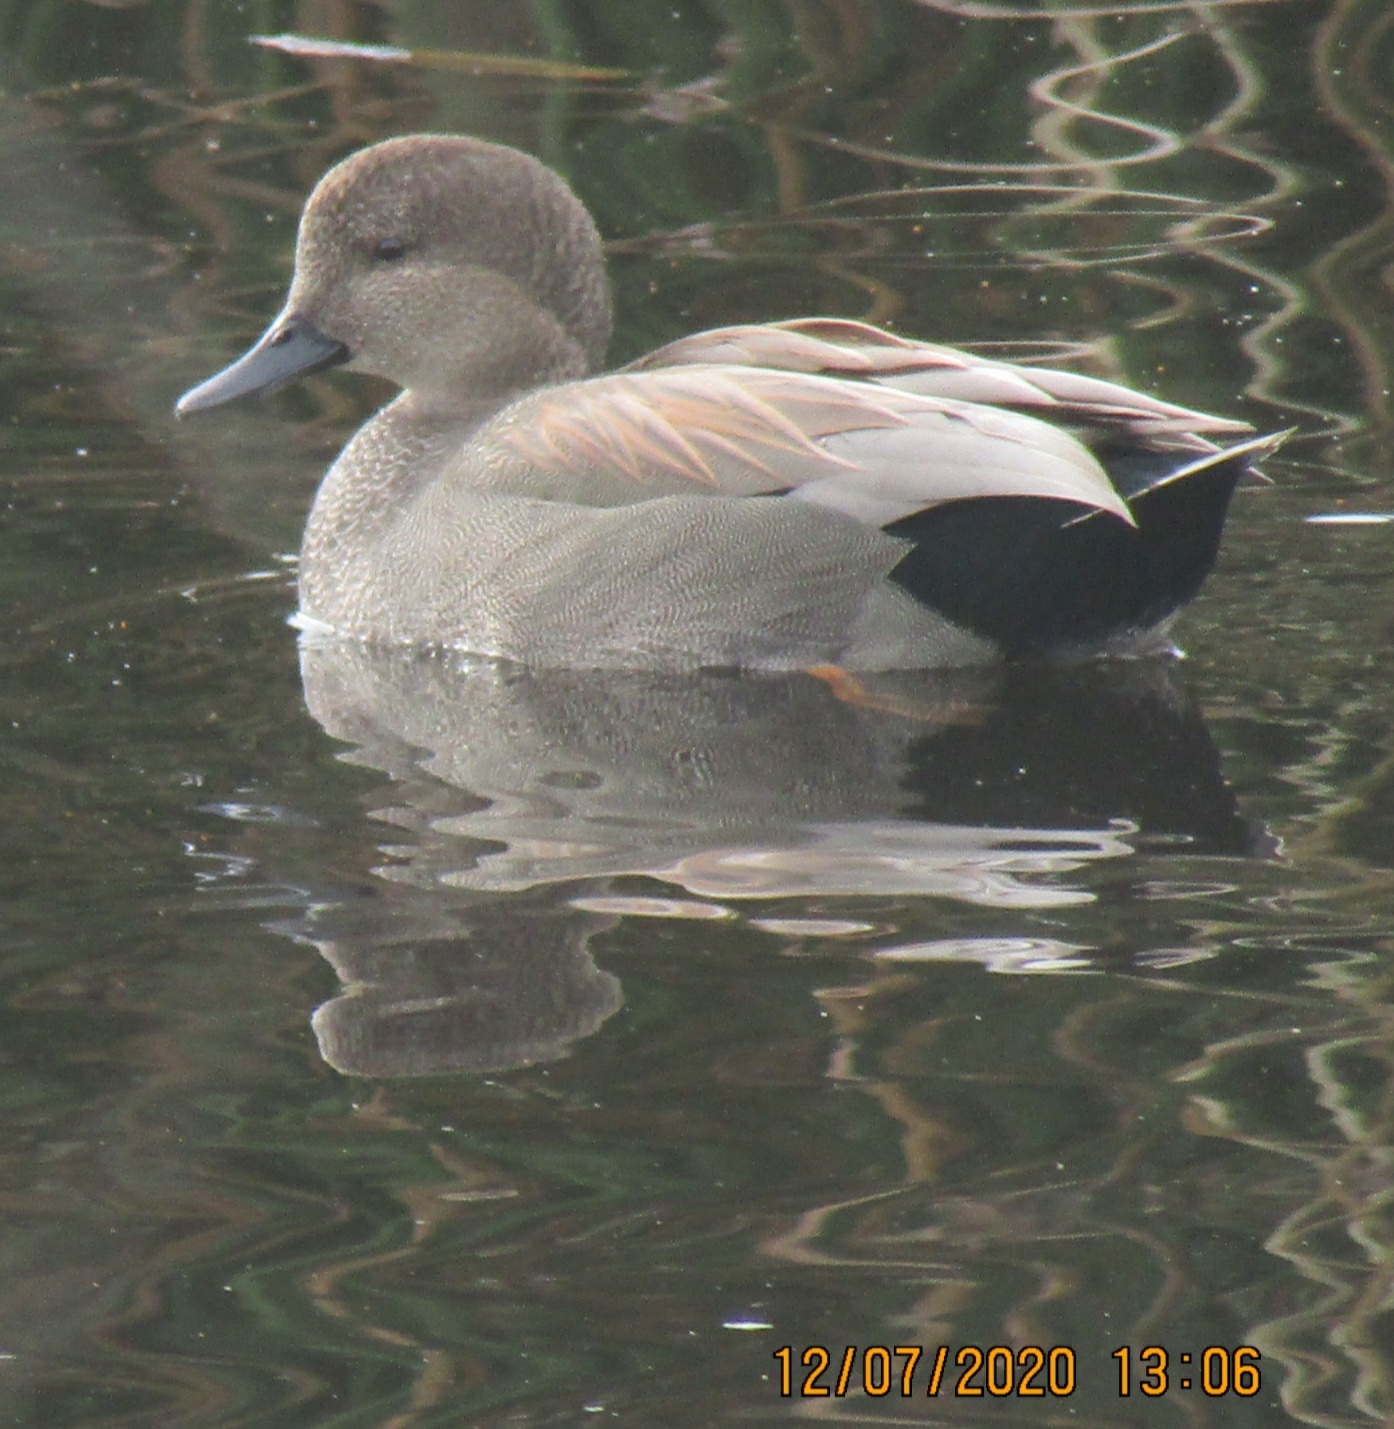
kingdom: Animalia
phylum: Chordata
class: Aves
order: Anseriformes
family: Anatidae
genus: Mareca
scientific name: Mareca strepera
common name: Gadwall
